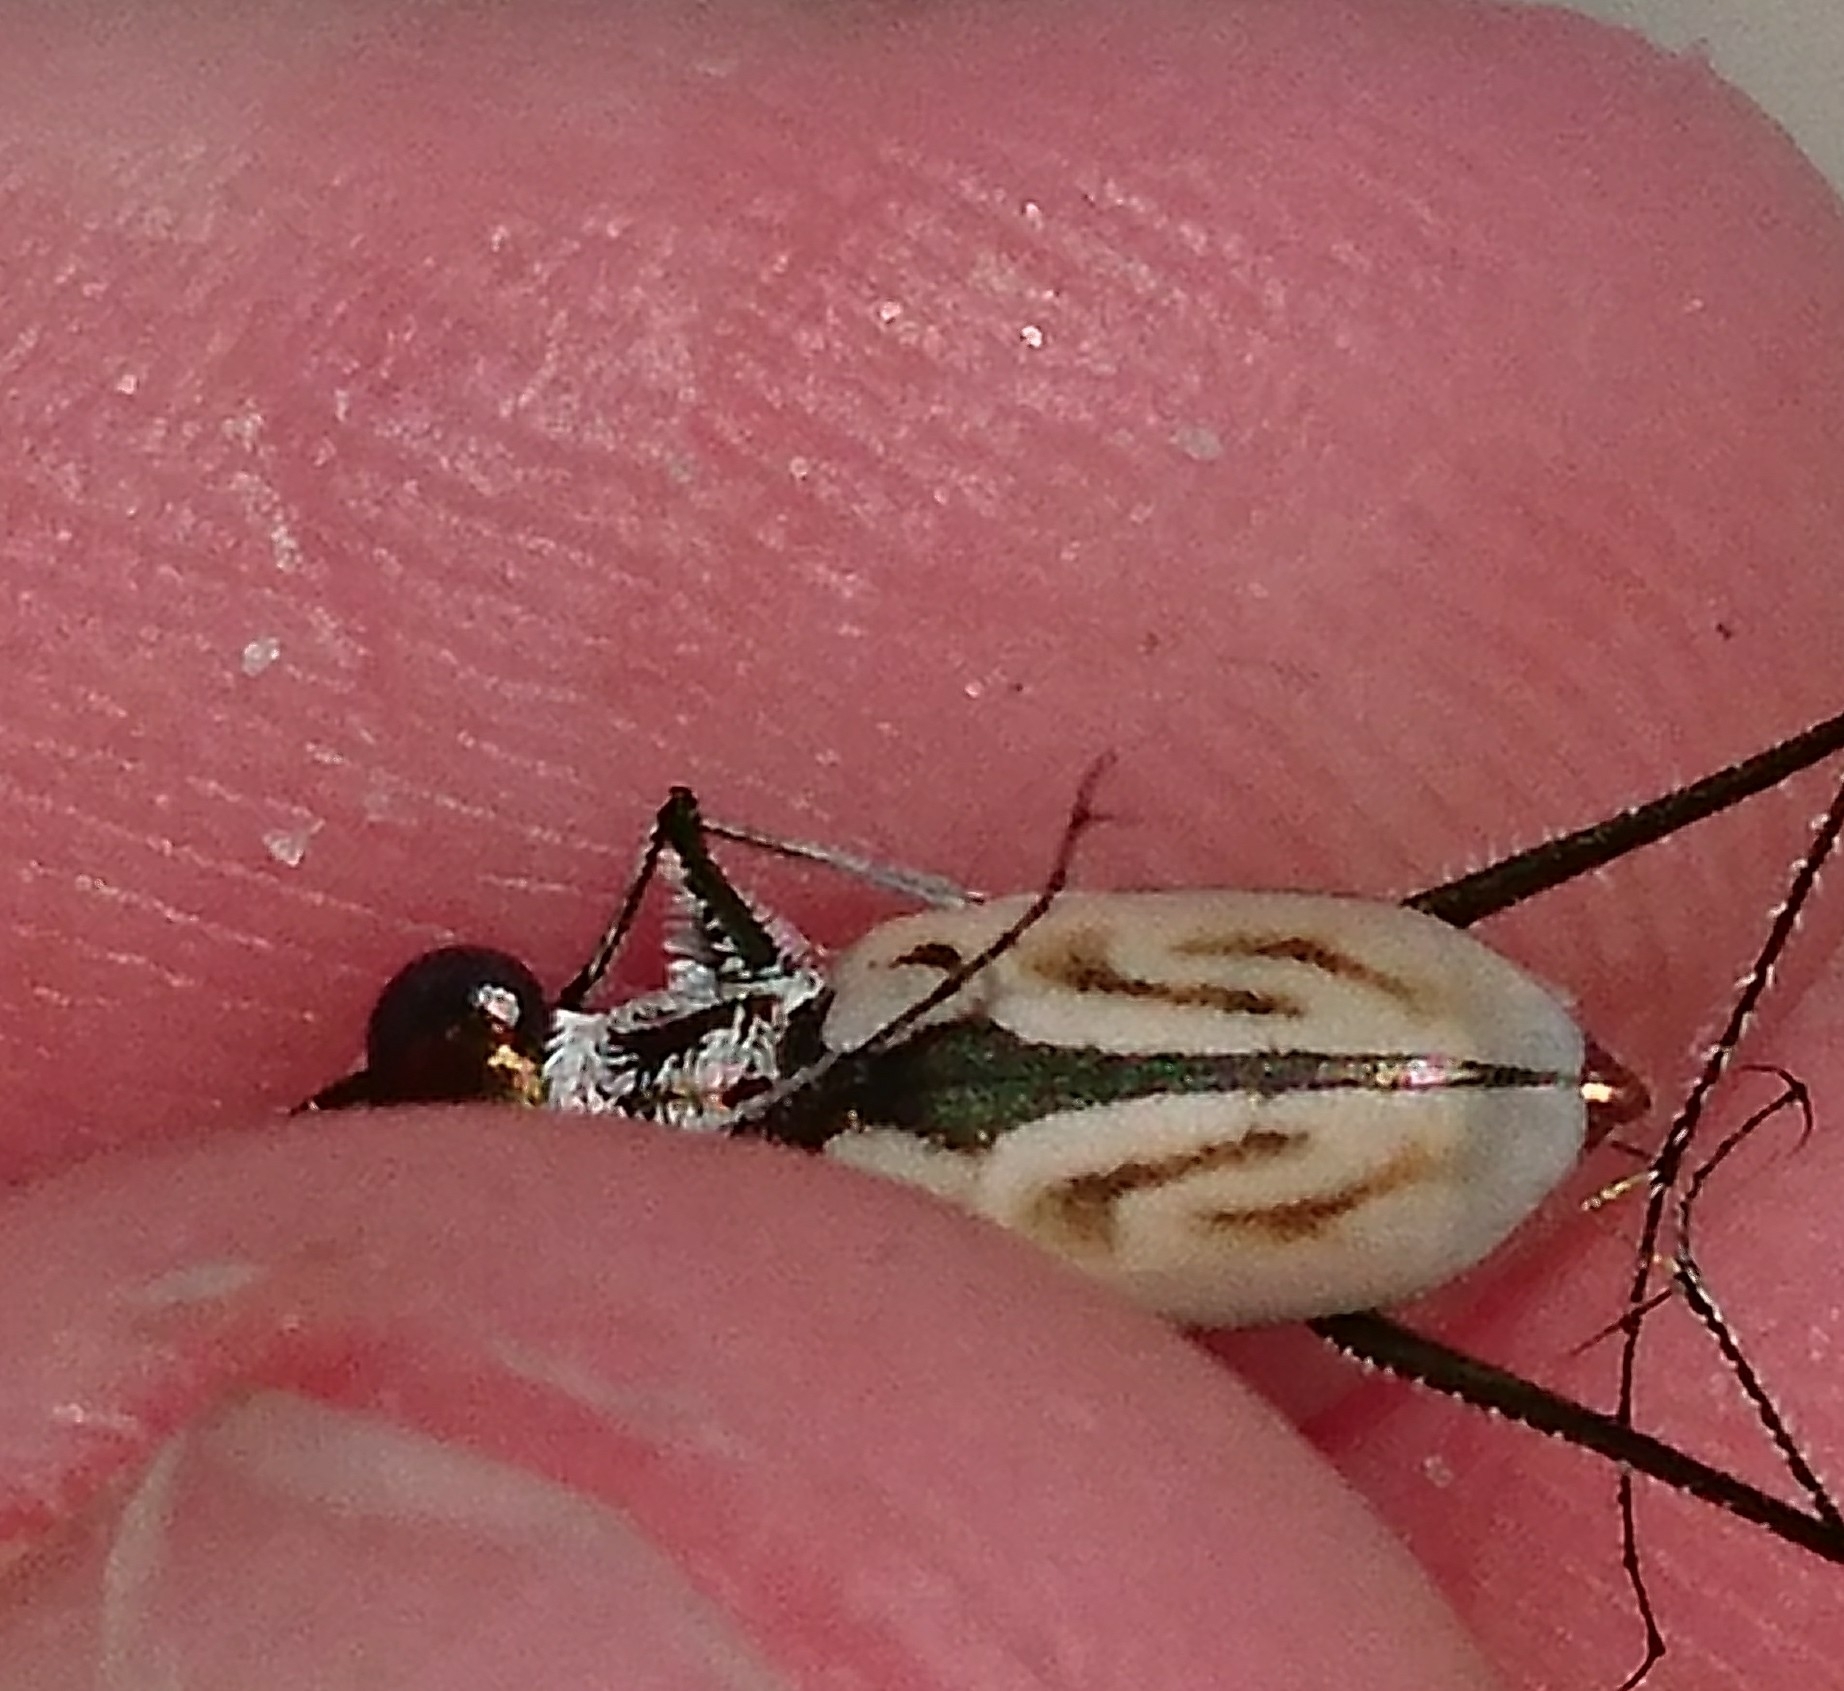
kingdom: Animalia
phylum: Arthropoda
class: Insecta
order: Coleoptera
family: Carabidae
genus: Habroscelimorpha
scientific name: Habroscelimorpha dorsalis
